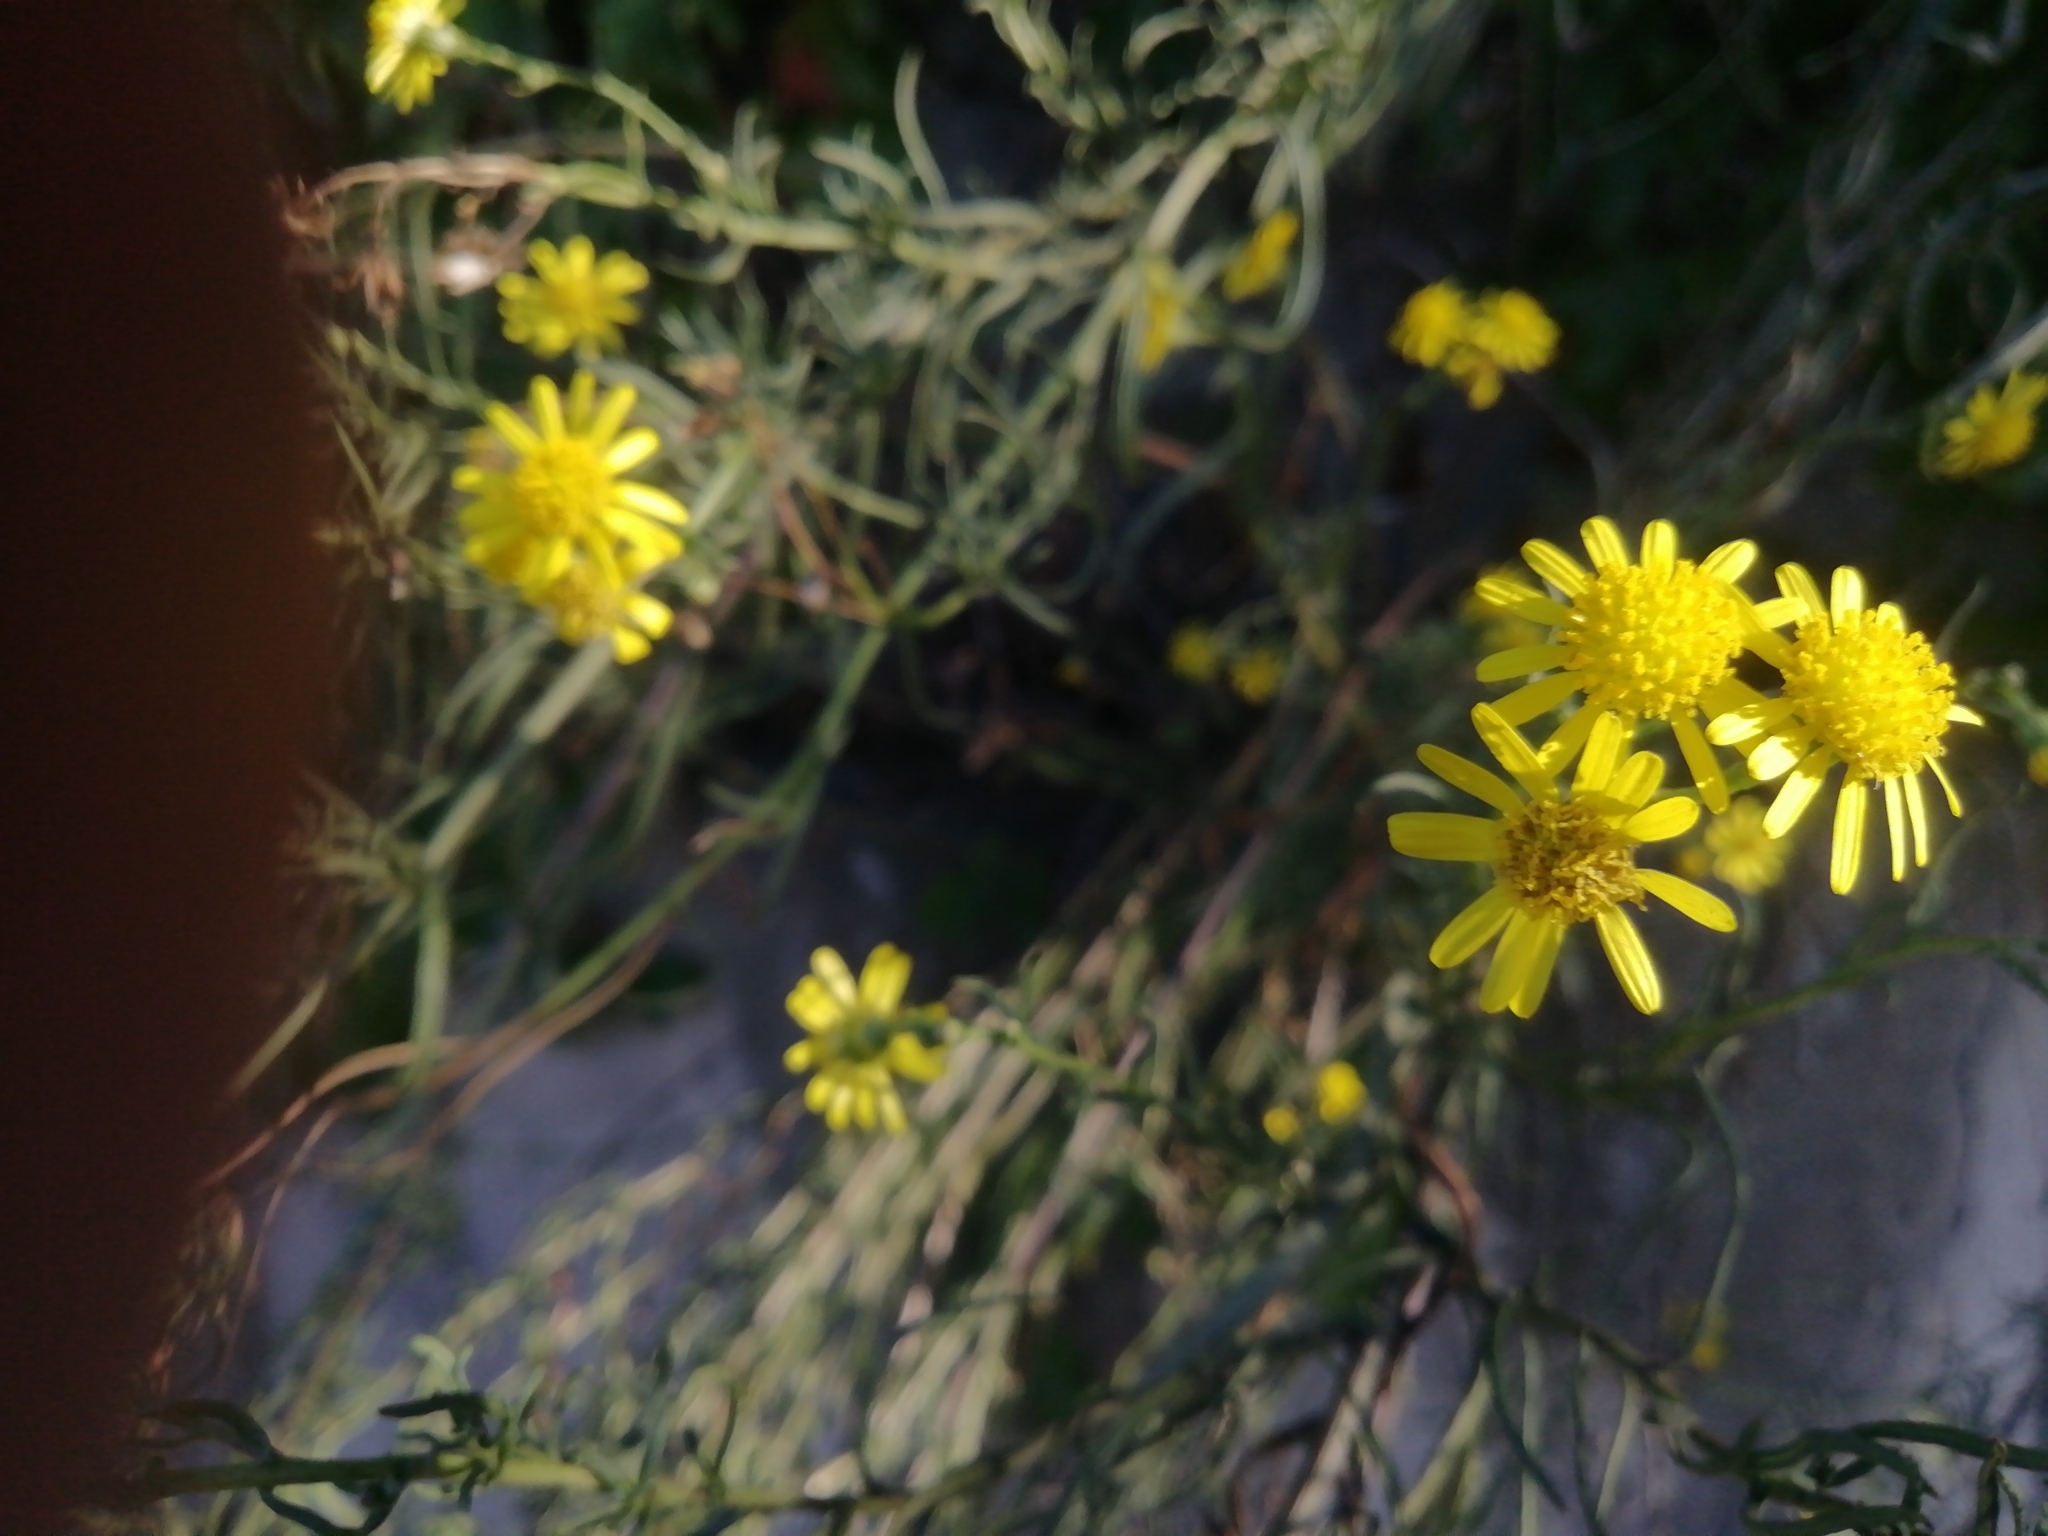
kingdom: Plantae
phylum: Tracheophyta
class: Magnoliopsida
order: Asterales
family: Asteraceae
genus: Senecio
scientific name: Senecio inaequidens
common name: Narrow-leaved ragwort
